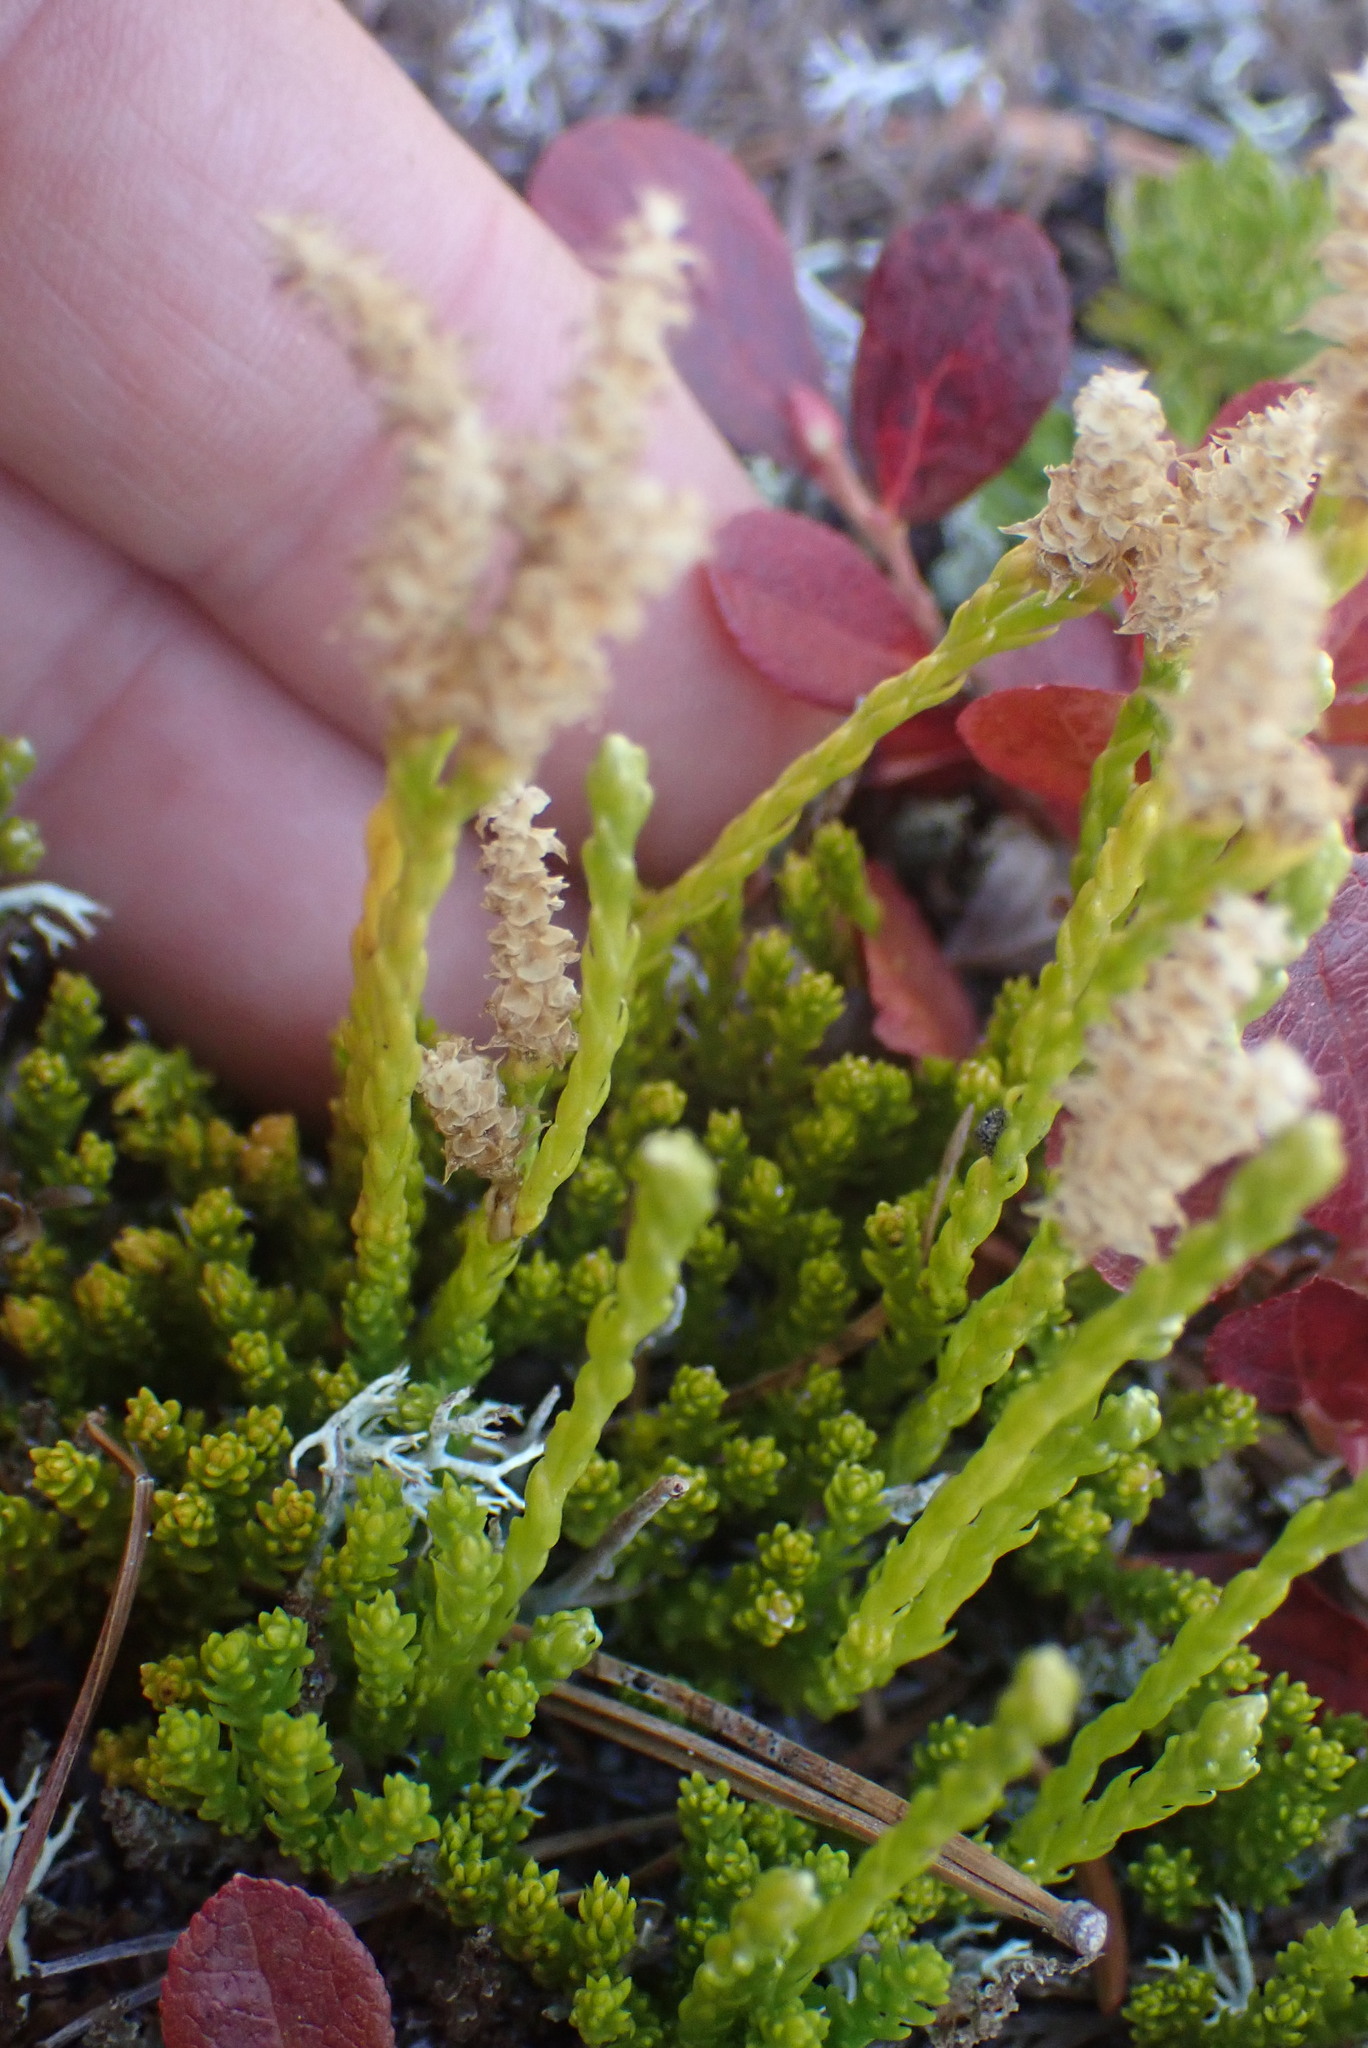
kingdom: Plantae
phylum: Tracheophyta
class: Lycopodiopsida
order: Lycopodiales
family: Lycopodiaceae
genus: Diphasiastrum
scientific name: Diphasiastrum sitchense
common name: Alaska clubmoss
